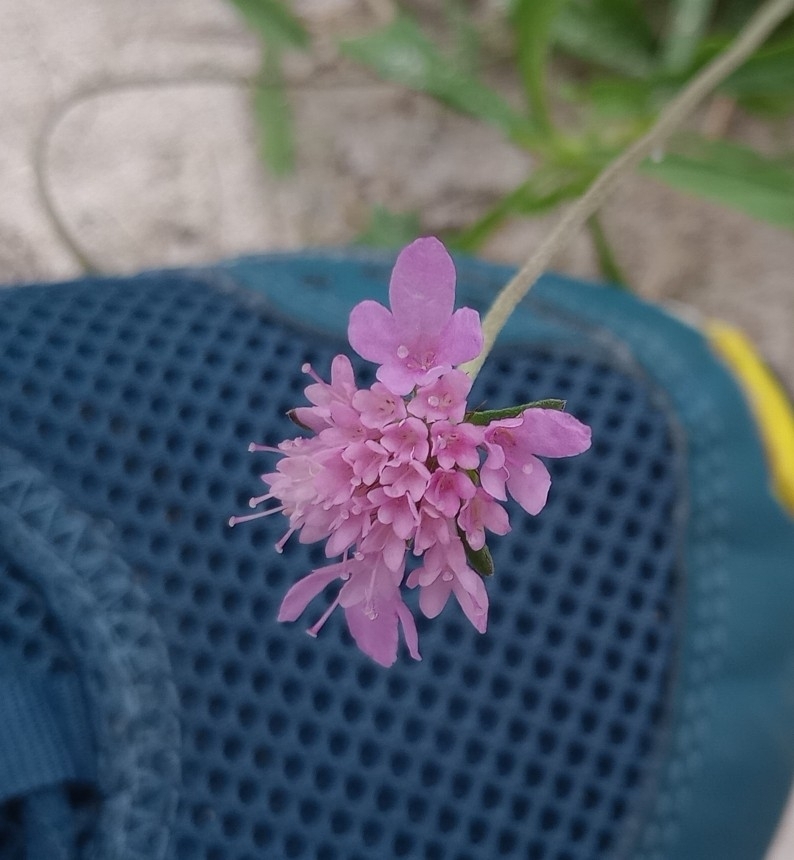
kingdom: Plantae
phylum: Tracheophyta
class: Magnoliopsida
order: Dipsacales
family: Caprifoliaceae
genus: Sixalix
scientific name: Sixalix atropurpurea
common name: Sweet scabious
